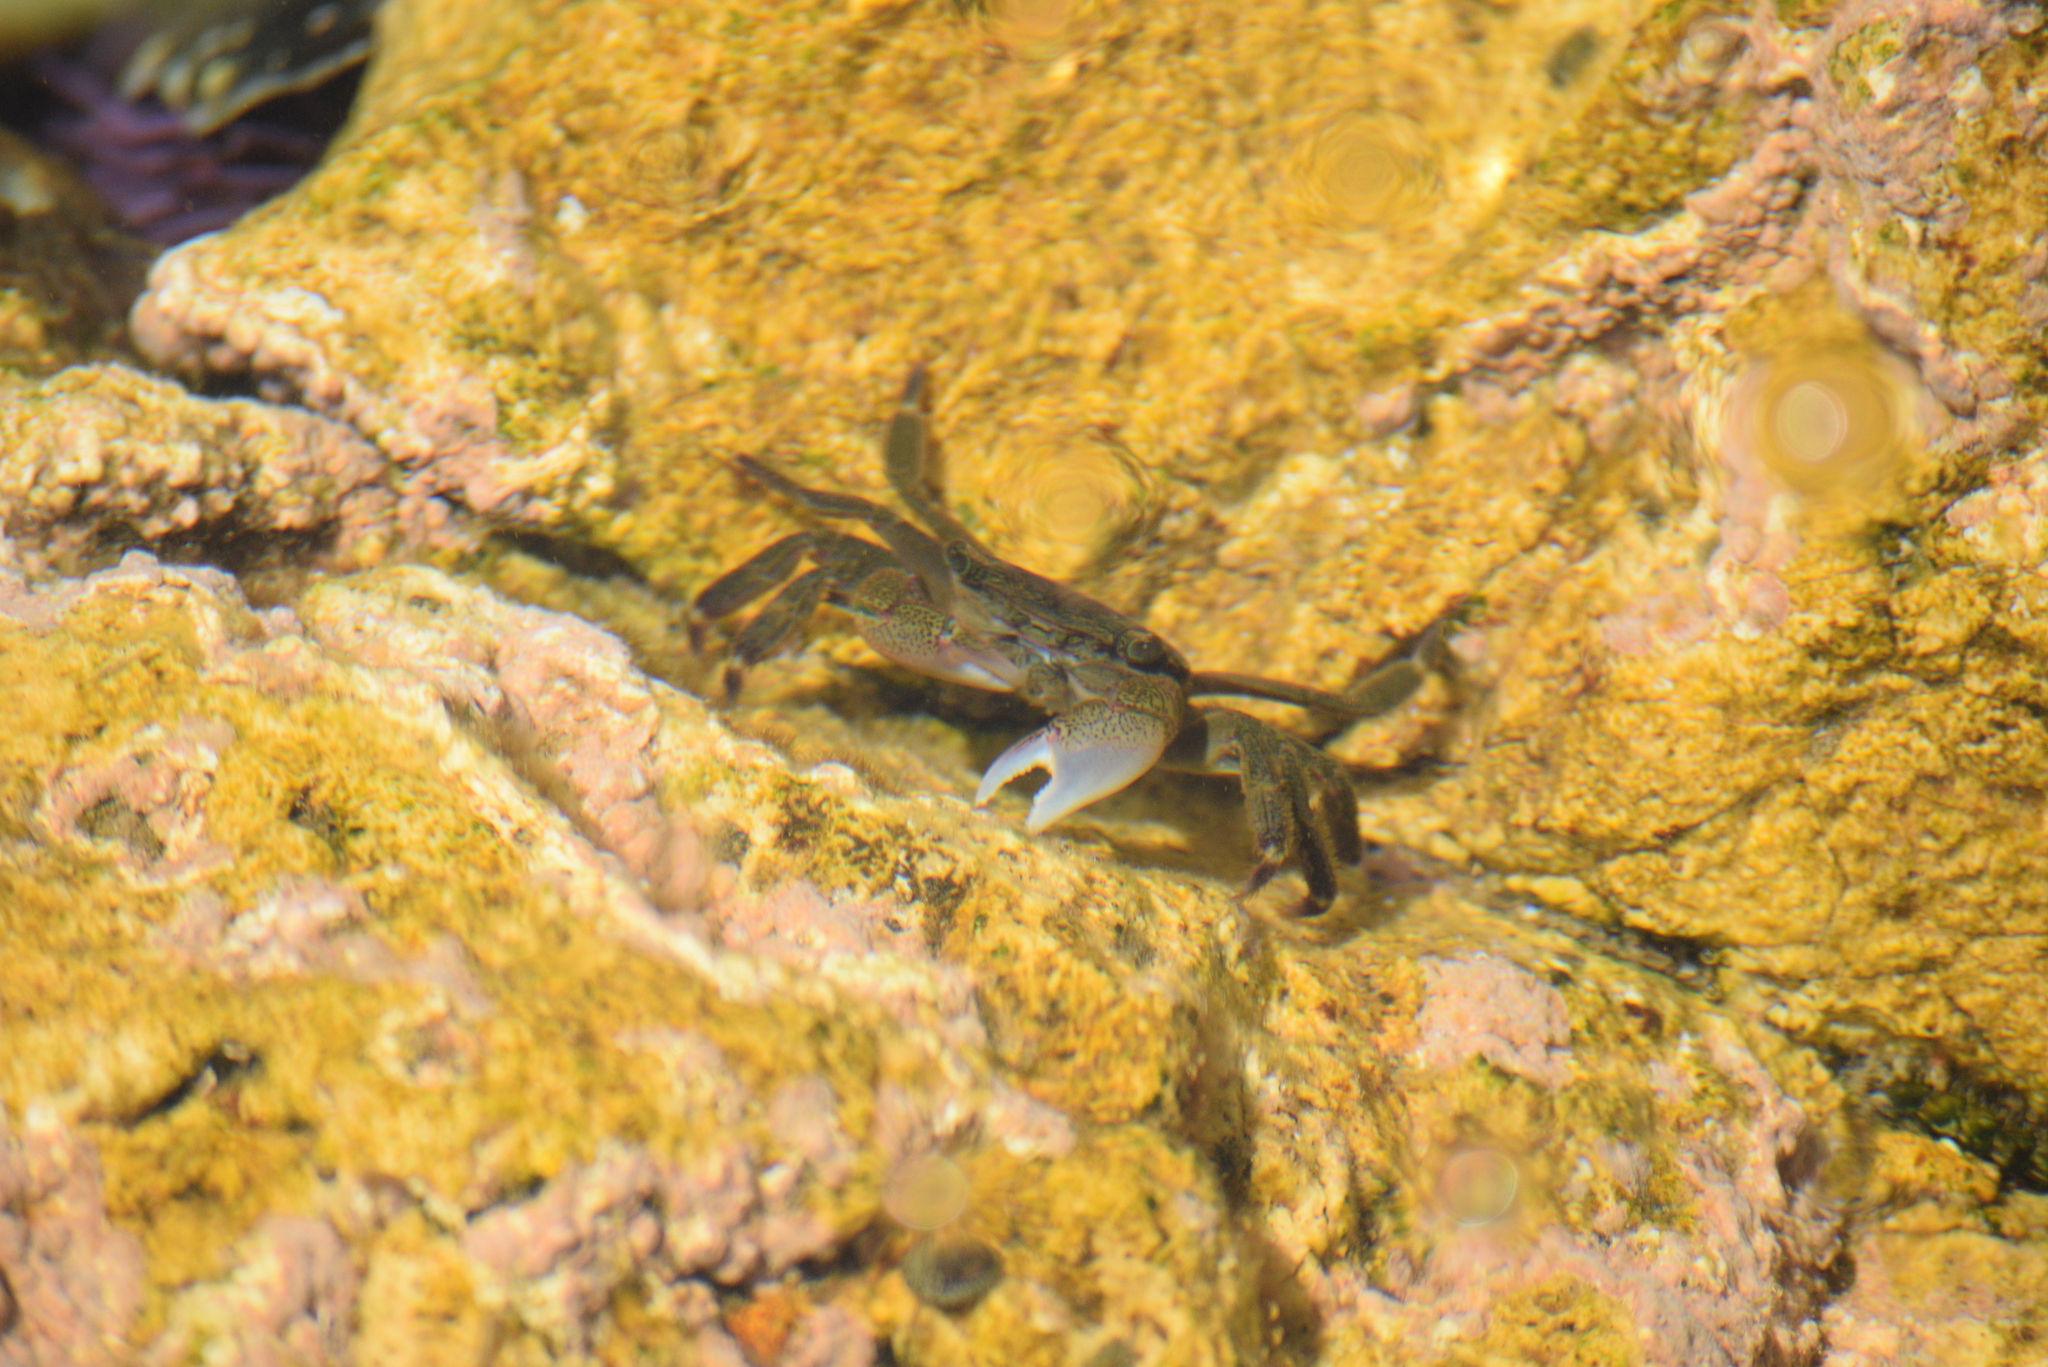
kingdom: Animalia
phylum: Arthropoda
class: Malacostraca
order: Decapoda
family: Grapsidae
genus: Pachygrapsus
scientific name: Pachygrapsus crassipes
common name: Striped shore crab
